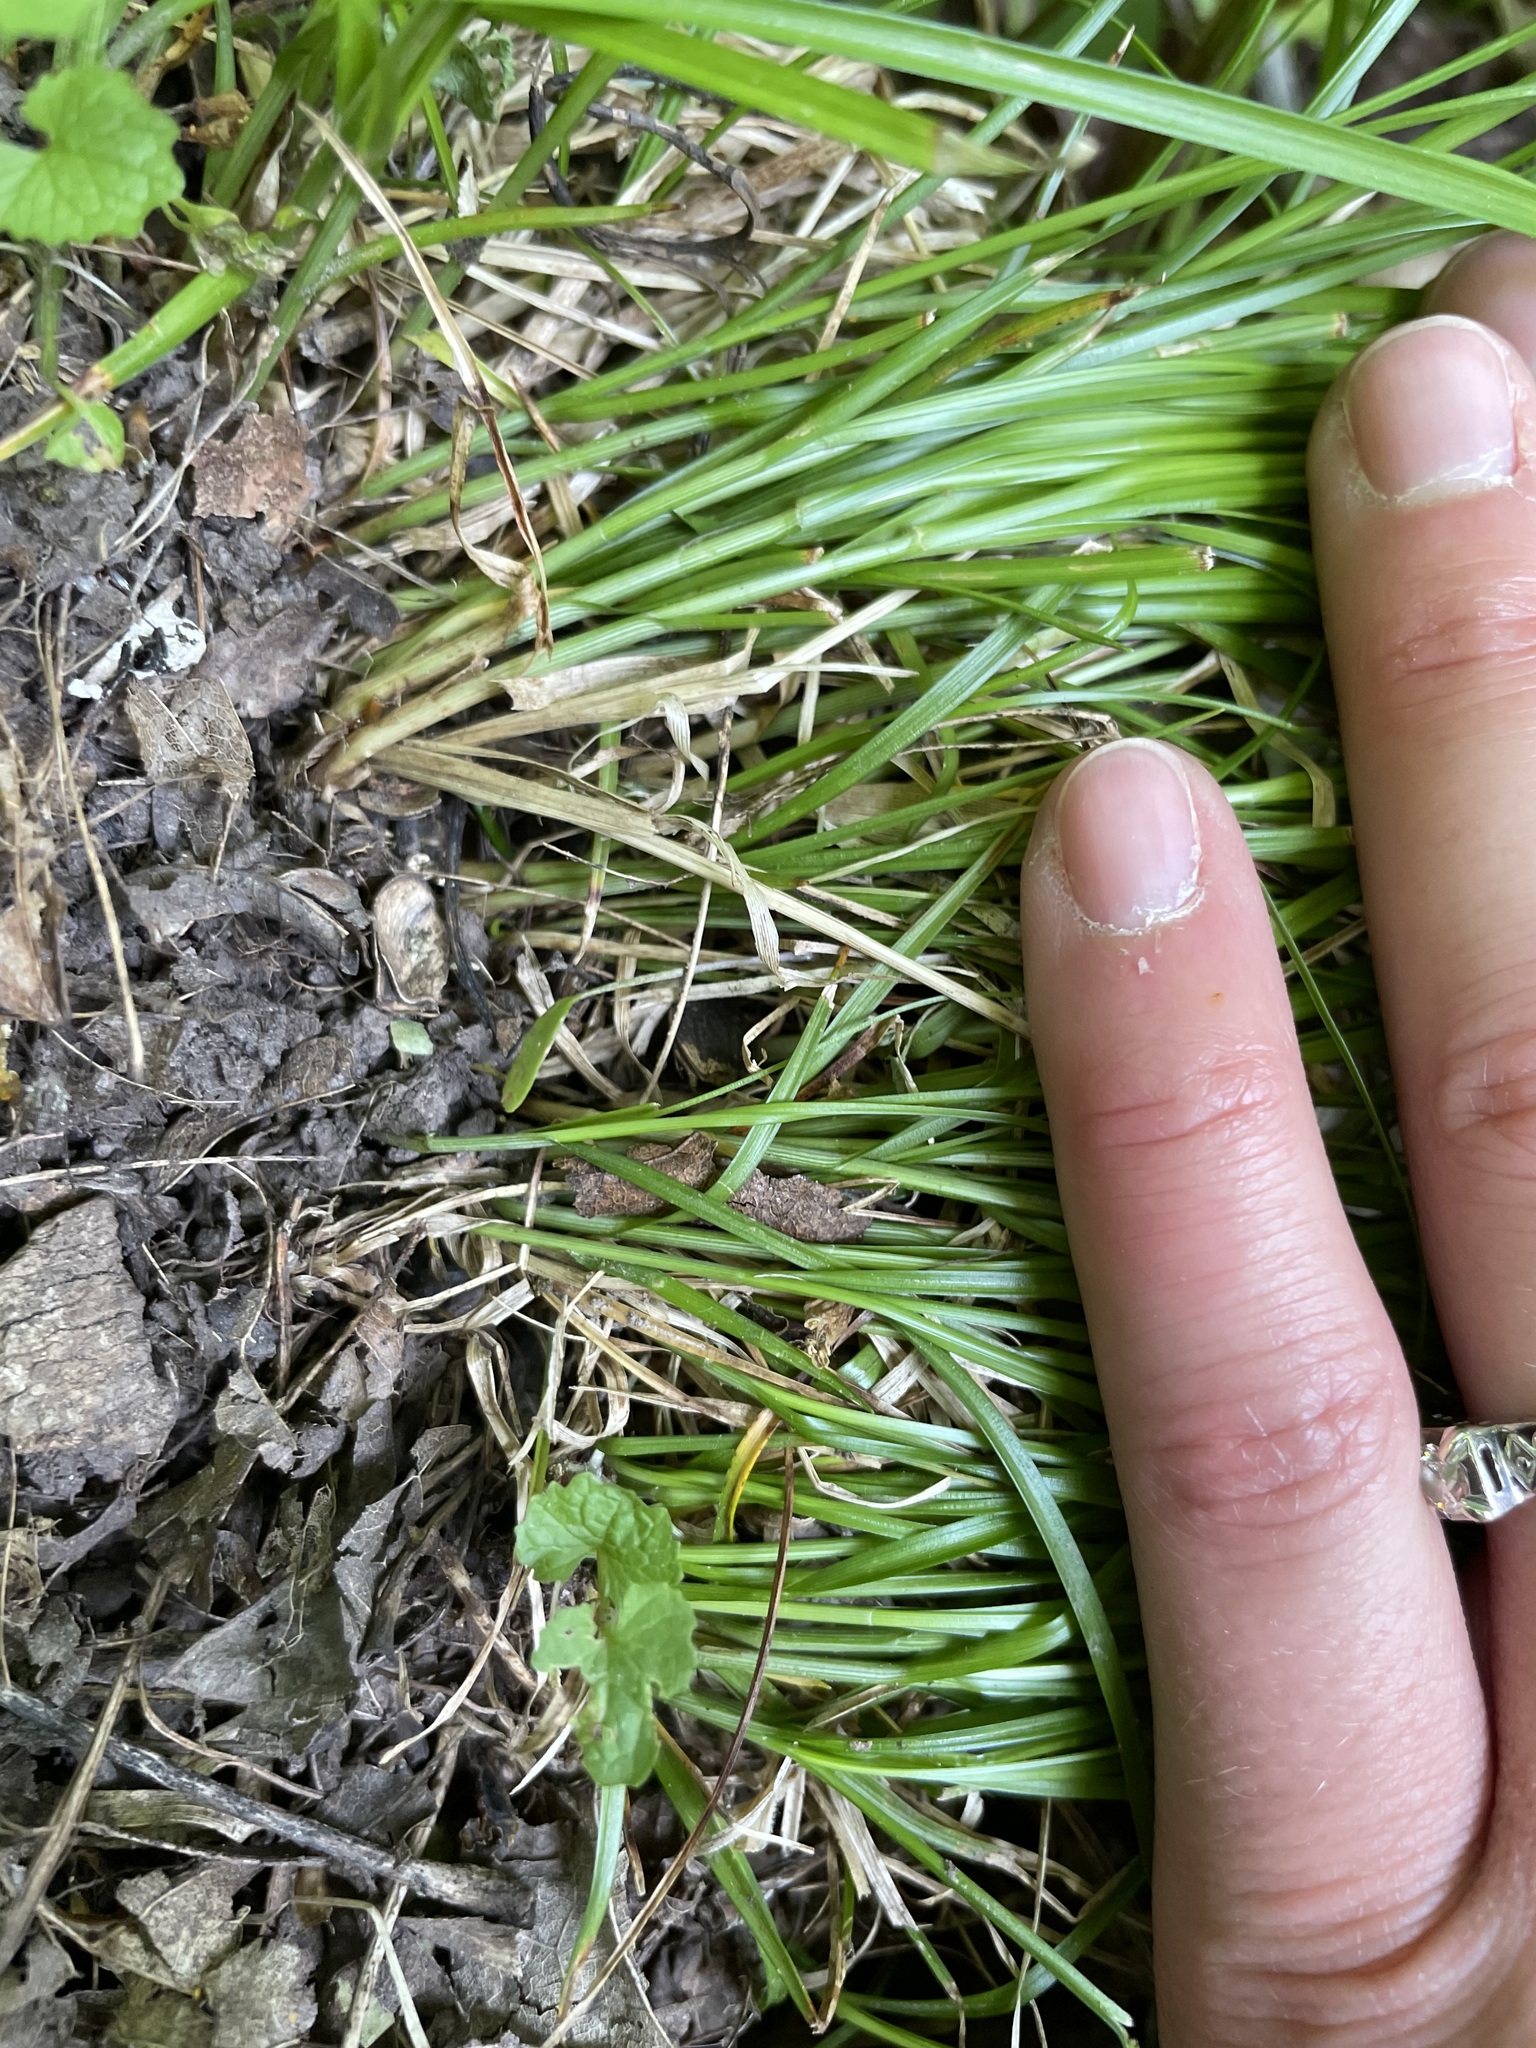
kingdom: Plantae
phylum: Tracheophyta
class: Liliopsida
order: Poales
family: Cyperaceae
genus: Carex
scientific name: Carex rosea
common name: Curly-styled wood sedge
